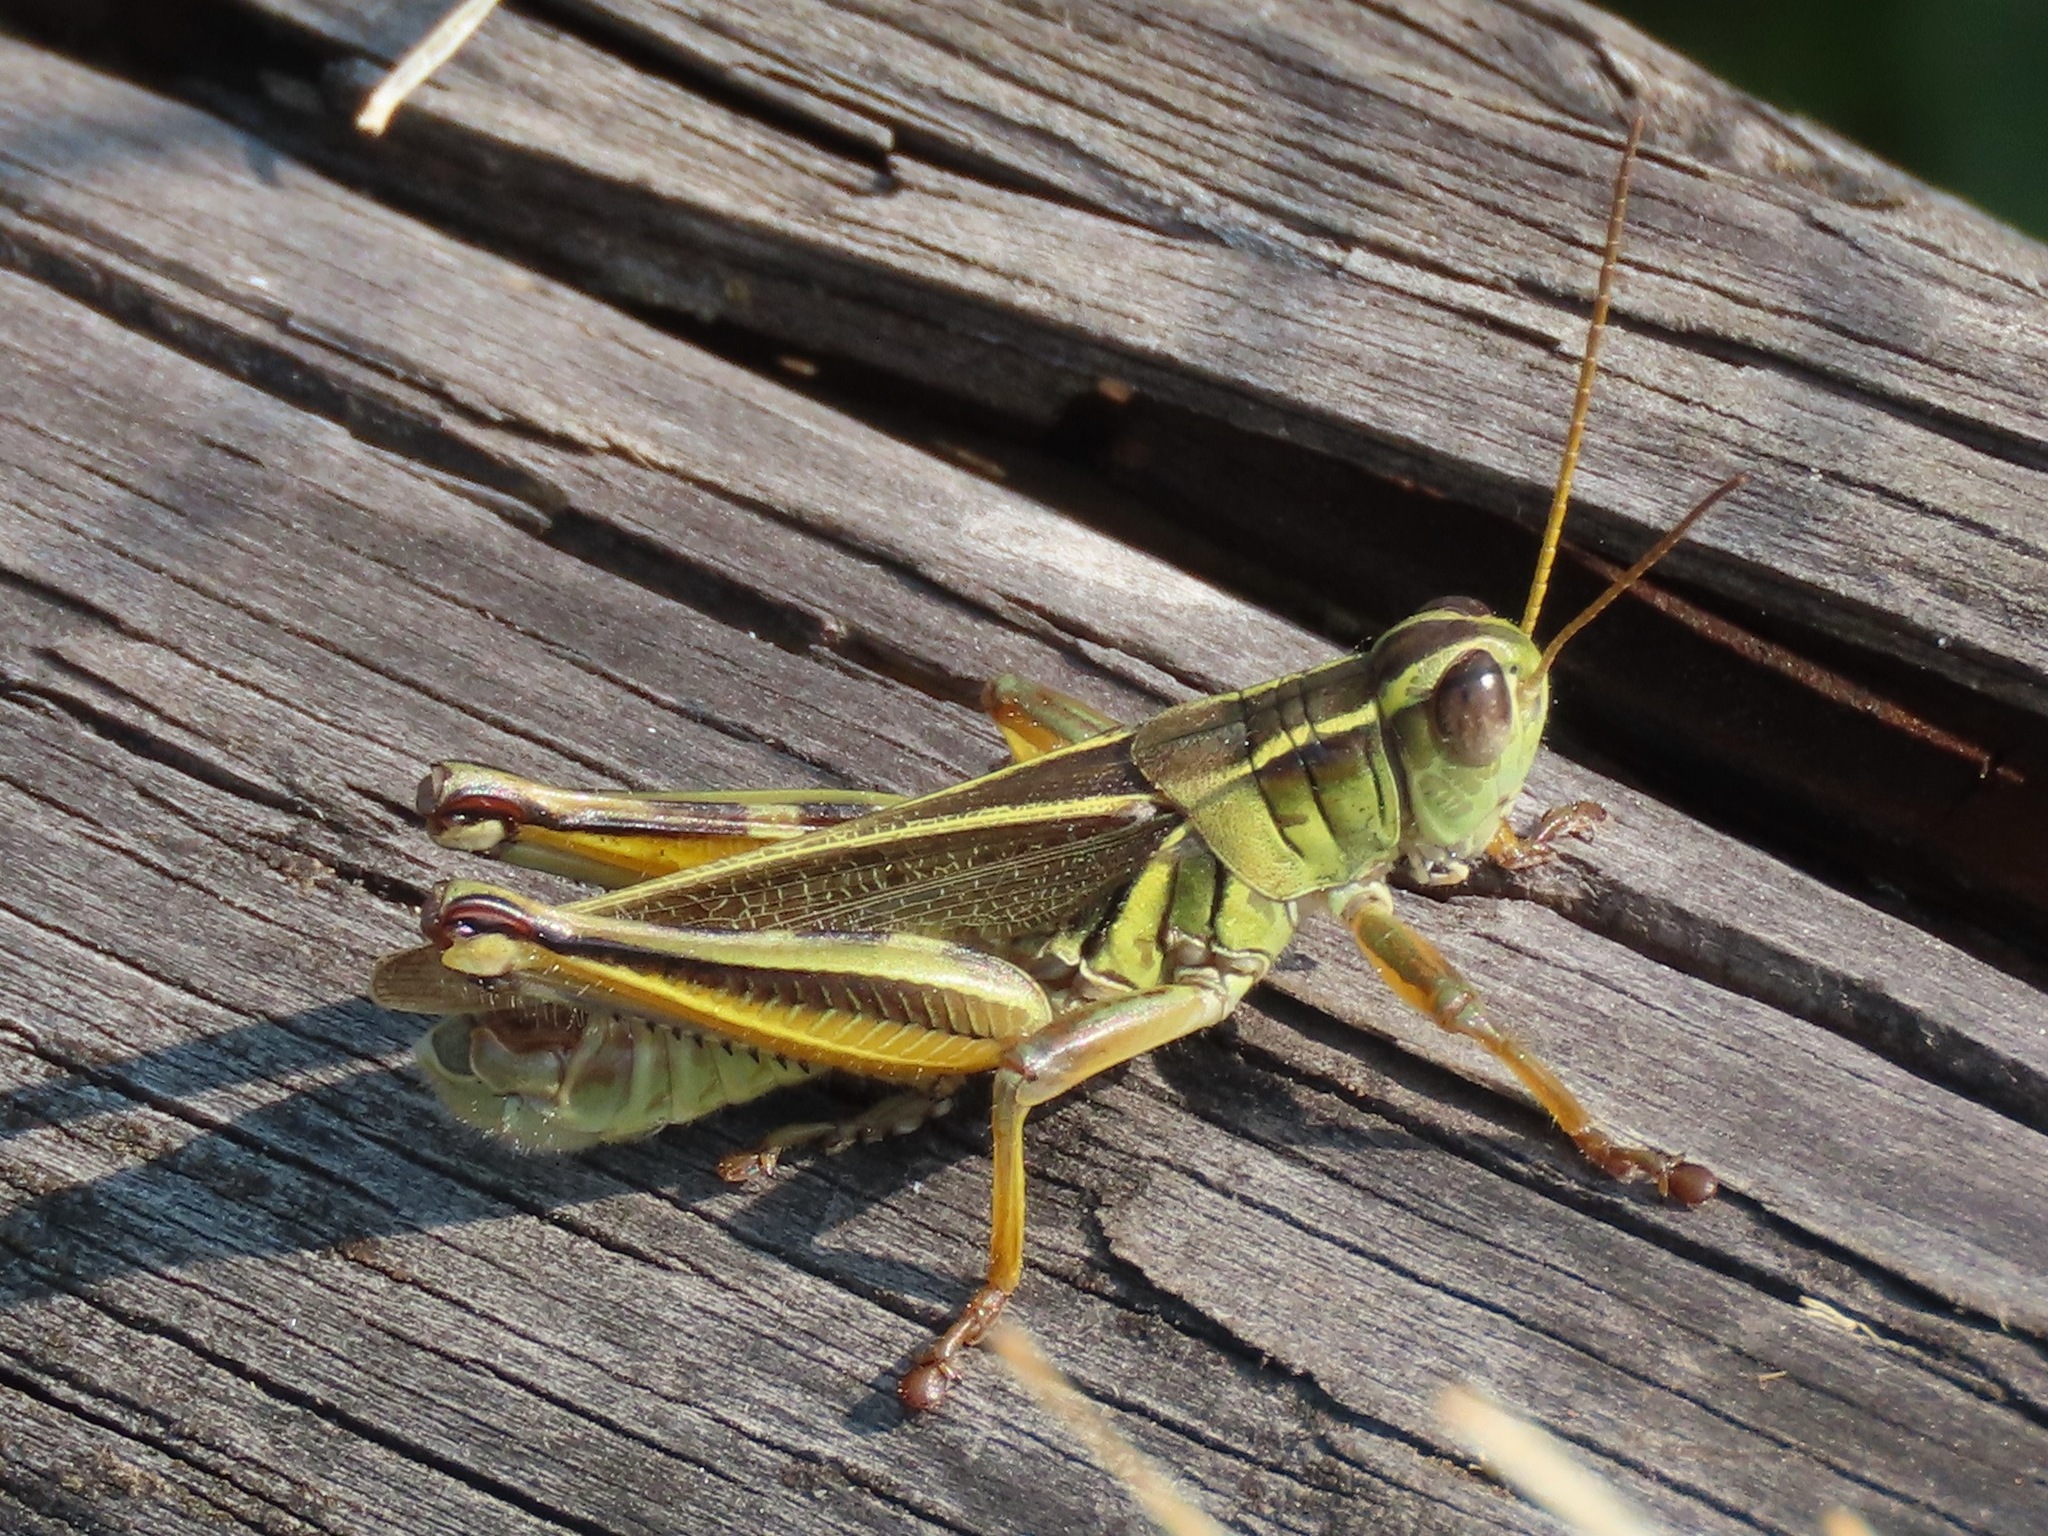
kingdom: Animalia
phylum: Arthropoda
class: Insecta
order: Orthoptera
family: Acrididae
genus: Melanoplus
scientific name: Melanoplus bivittatus
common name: Two-striped grasshopper
